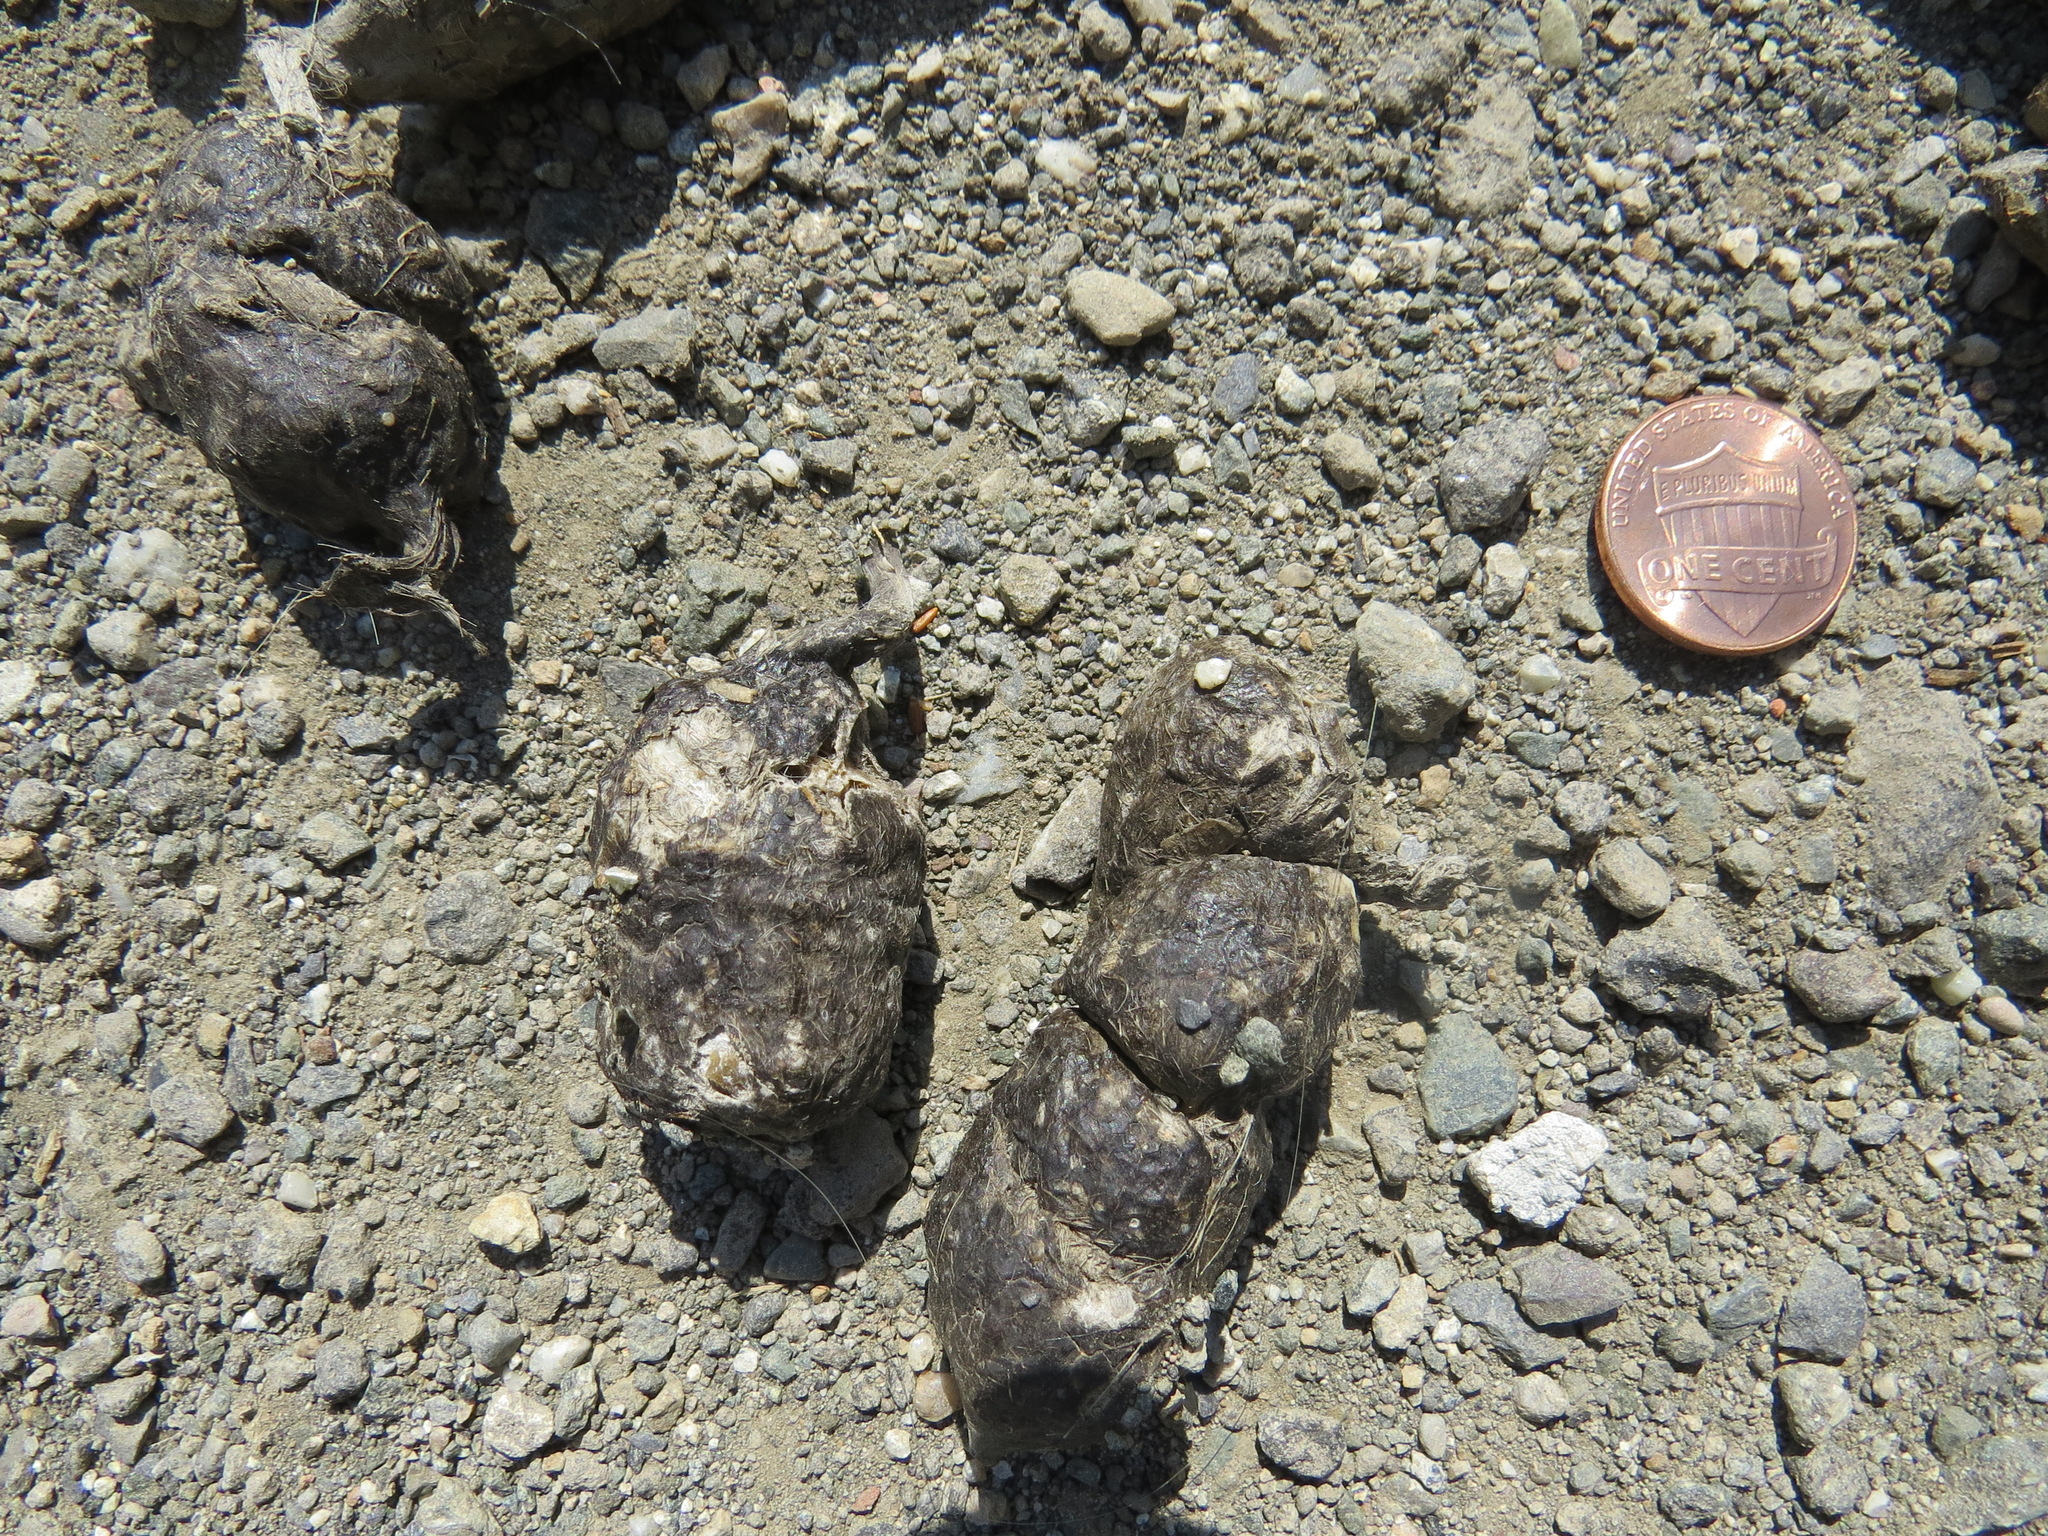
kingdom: Animalia
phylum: Chordata
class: Mammalia
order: Carnivora
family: Felidae
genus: Lynx
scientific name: Lynx rufus
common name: Bobcat
